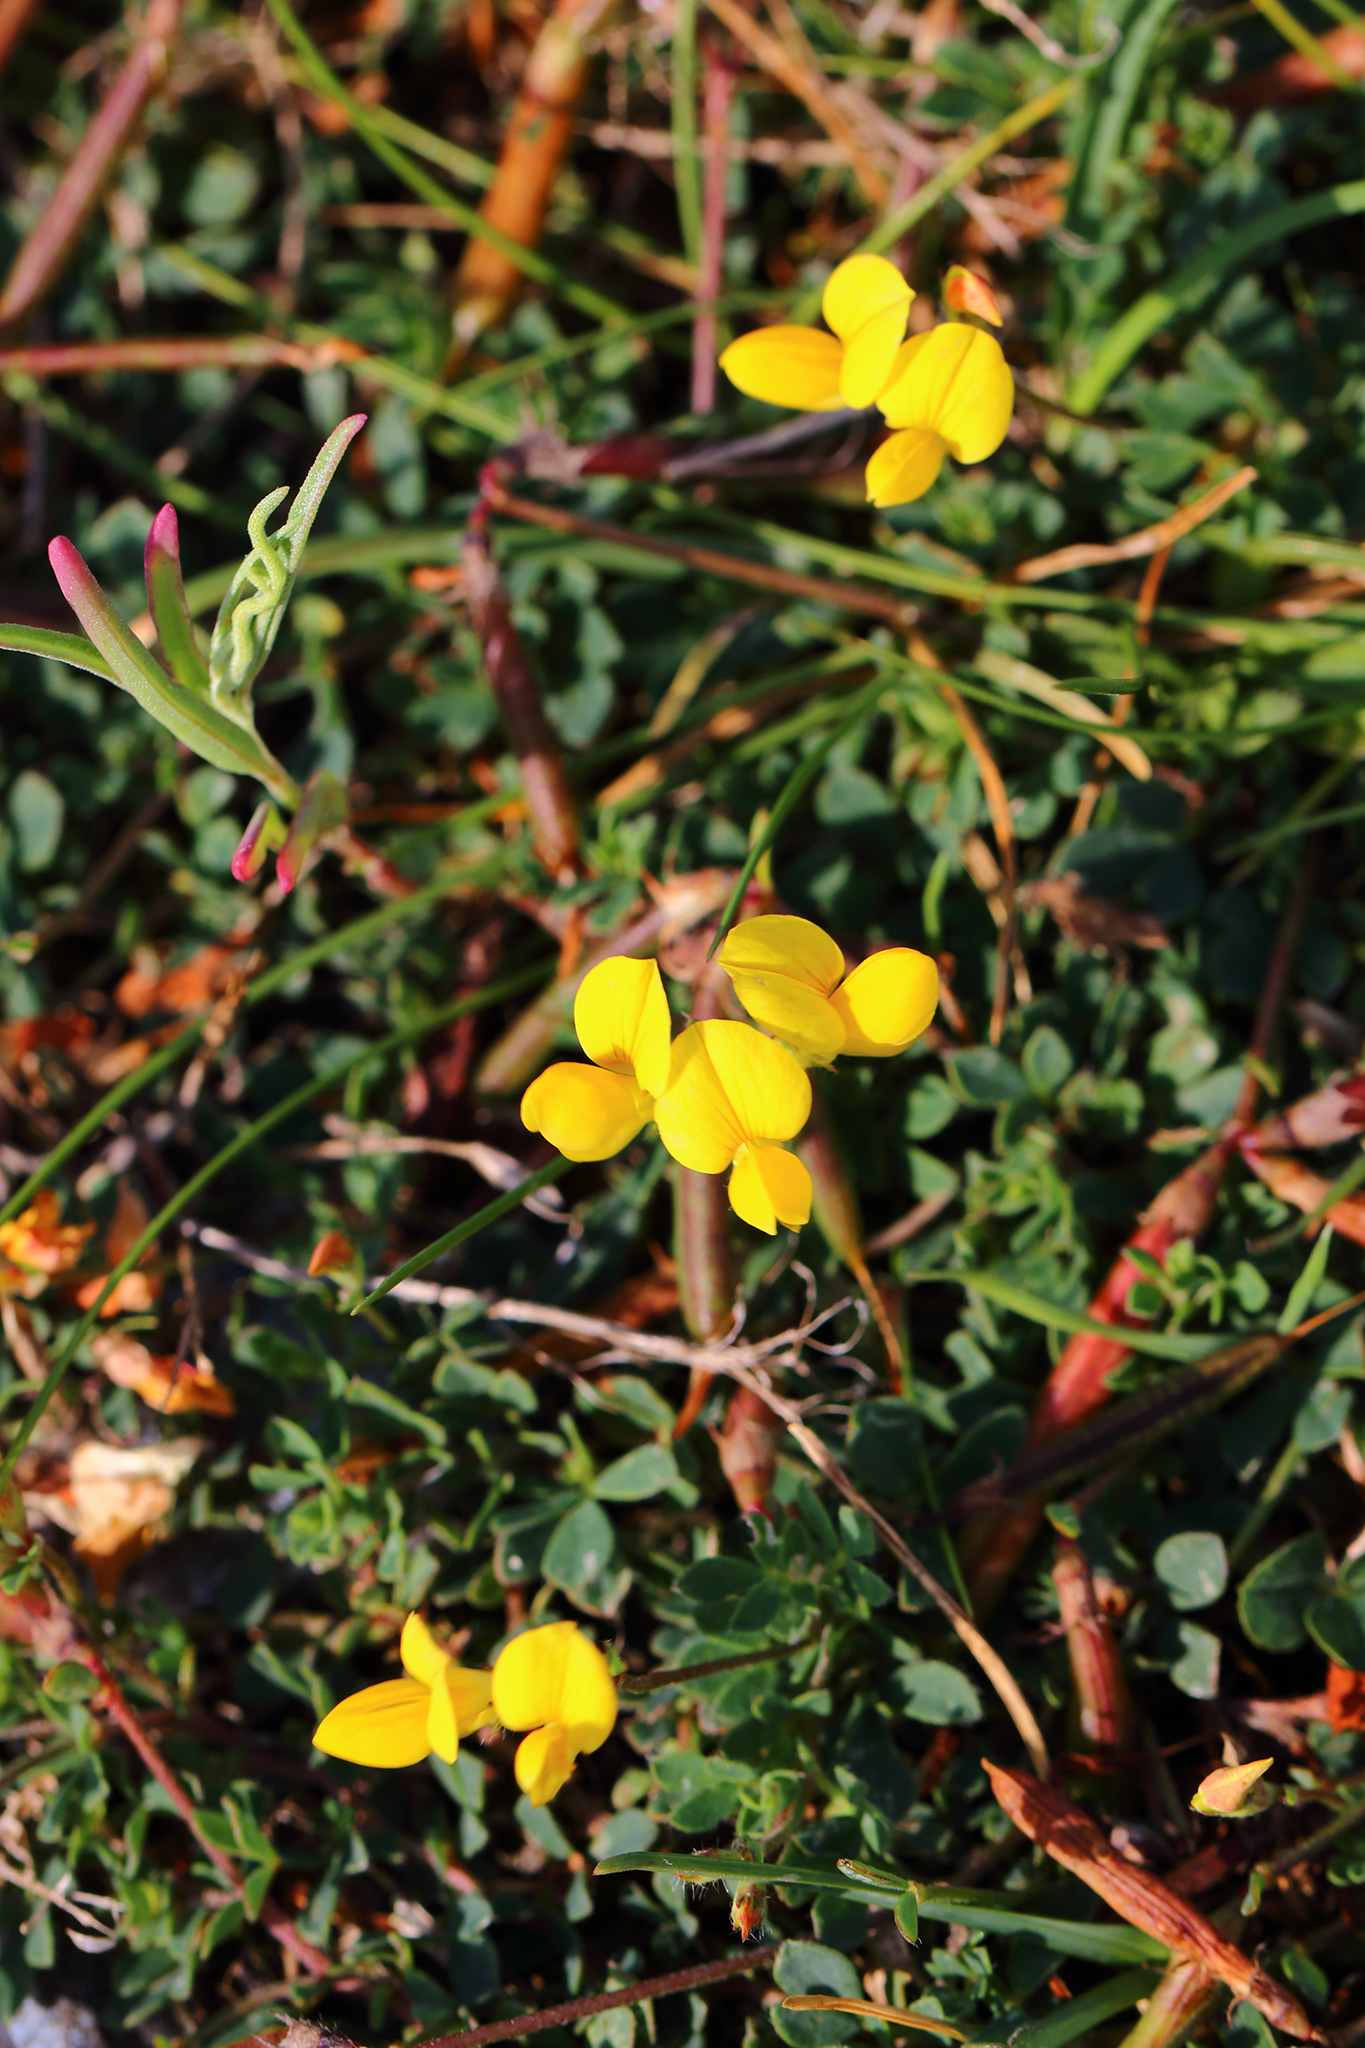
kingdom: Plantae
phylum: Tracheophyta
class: Magnoliopsida
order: Fabales
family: Fabaceae
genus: Lotus
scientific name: Lotus corniculatus
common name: Common bird's-foot-trefoil
